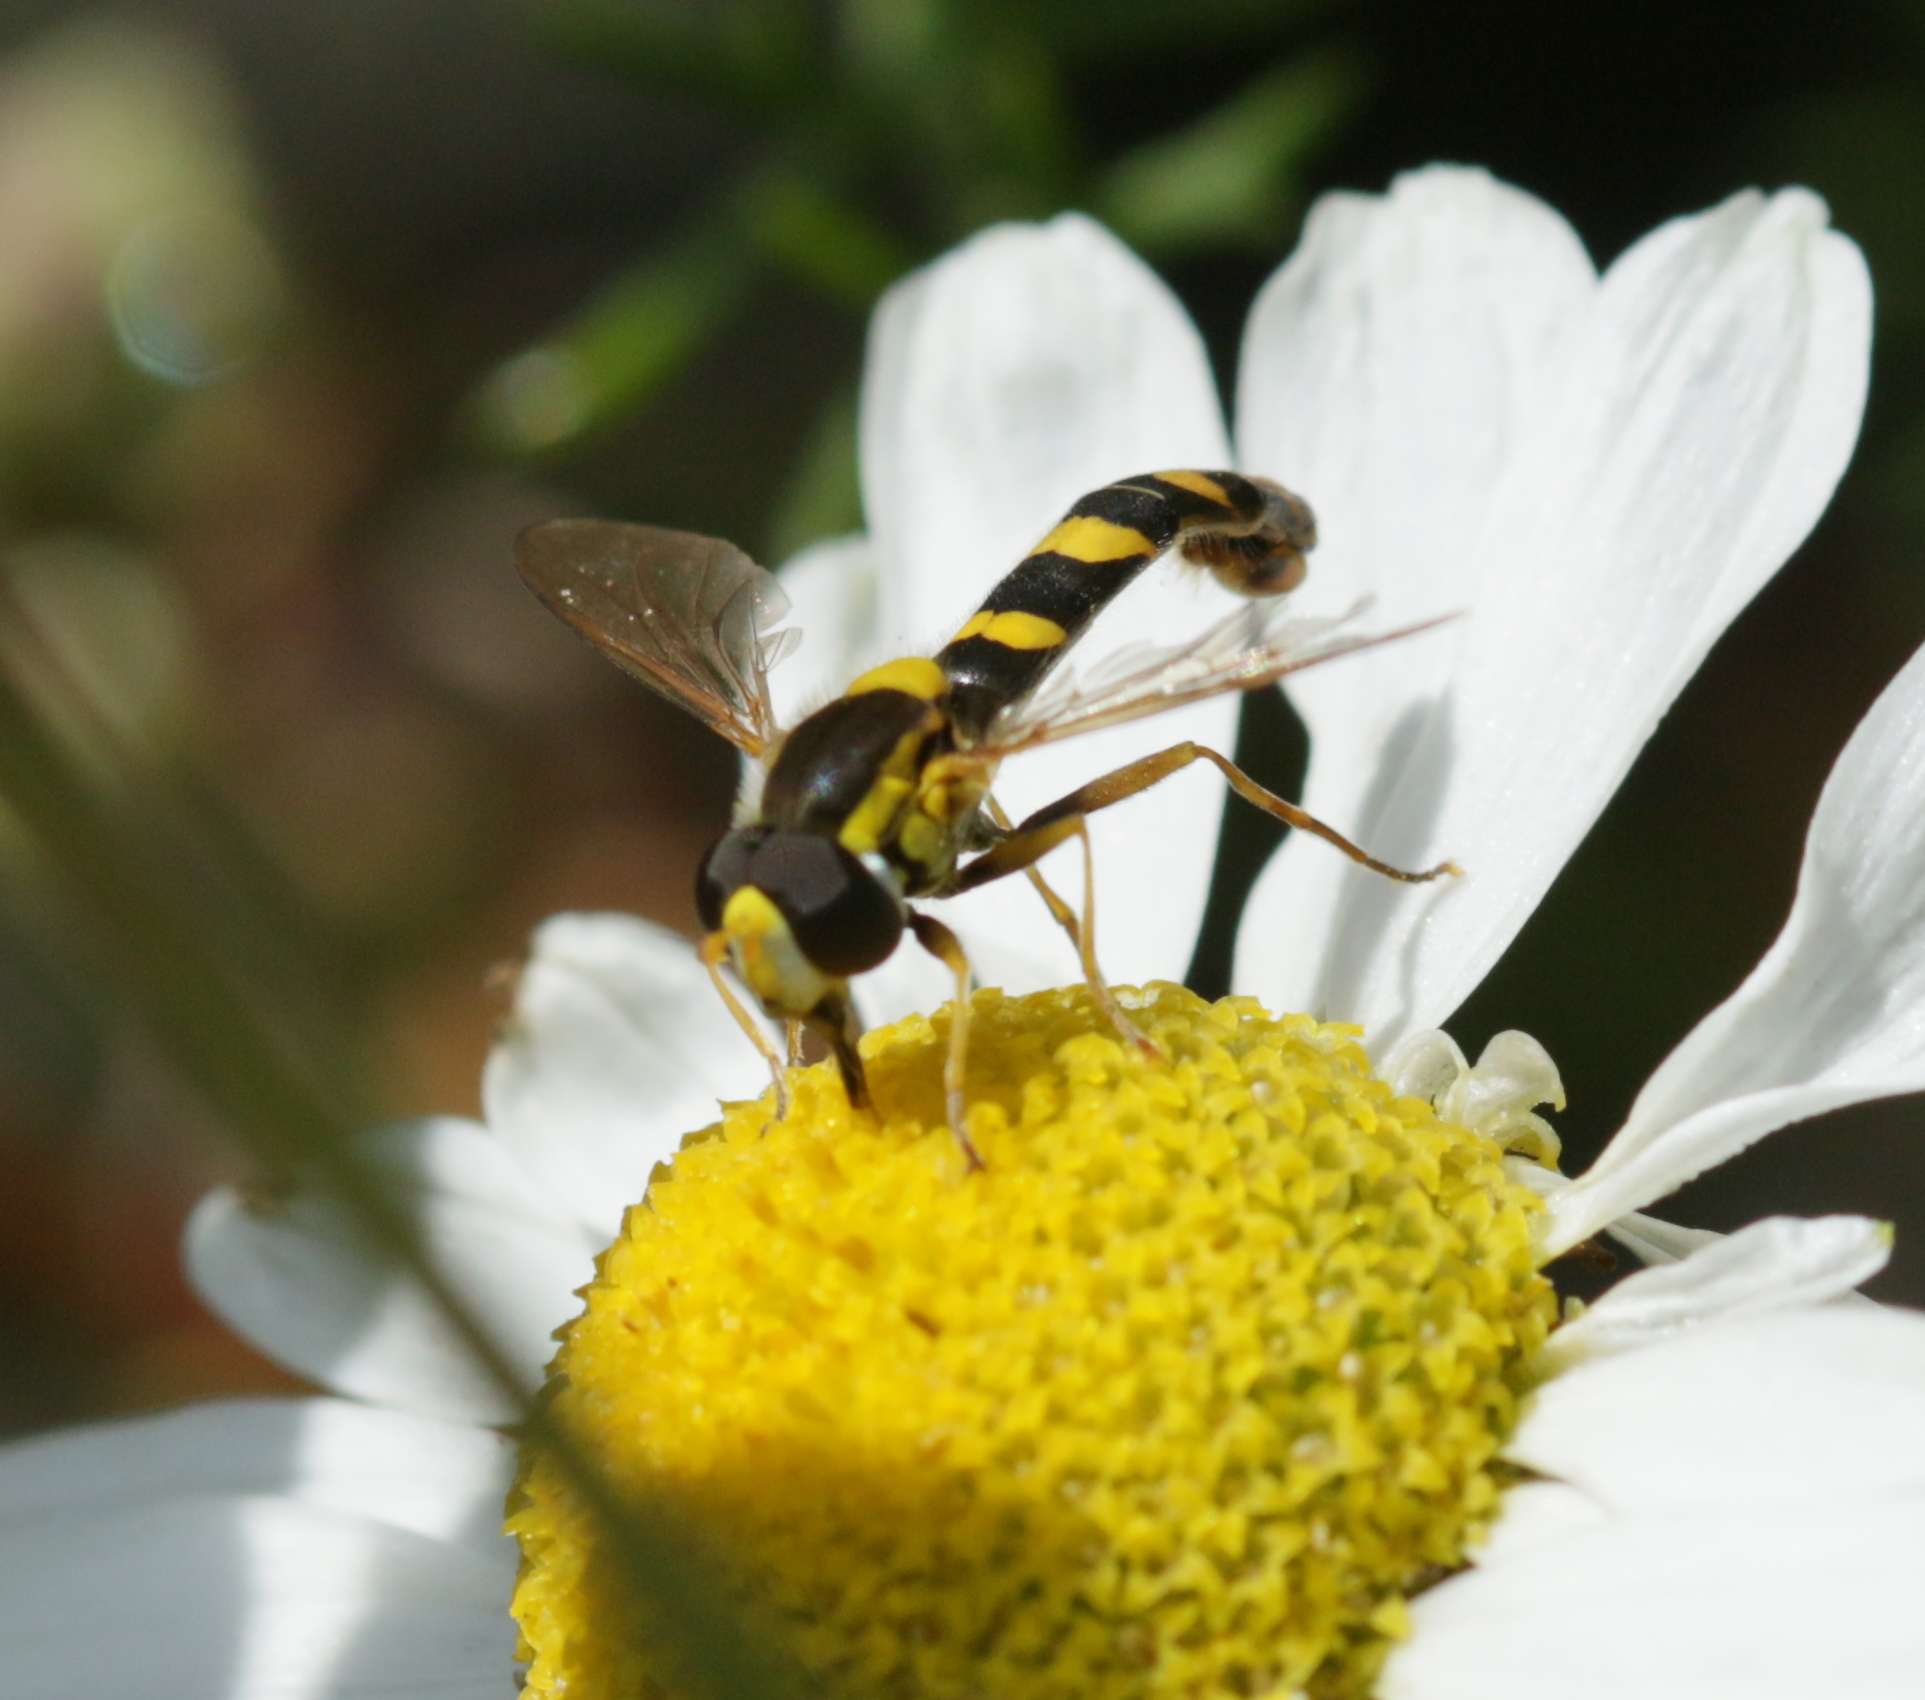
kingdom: Animalia
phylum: Arthropoda
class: Insecta
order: Diptera
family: Syrphidae
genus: Sphaerophoria
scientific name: Sphaerophoria scripta
